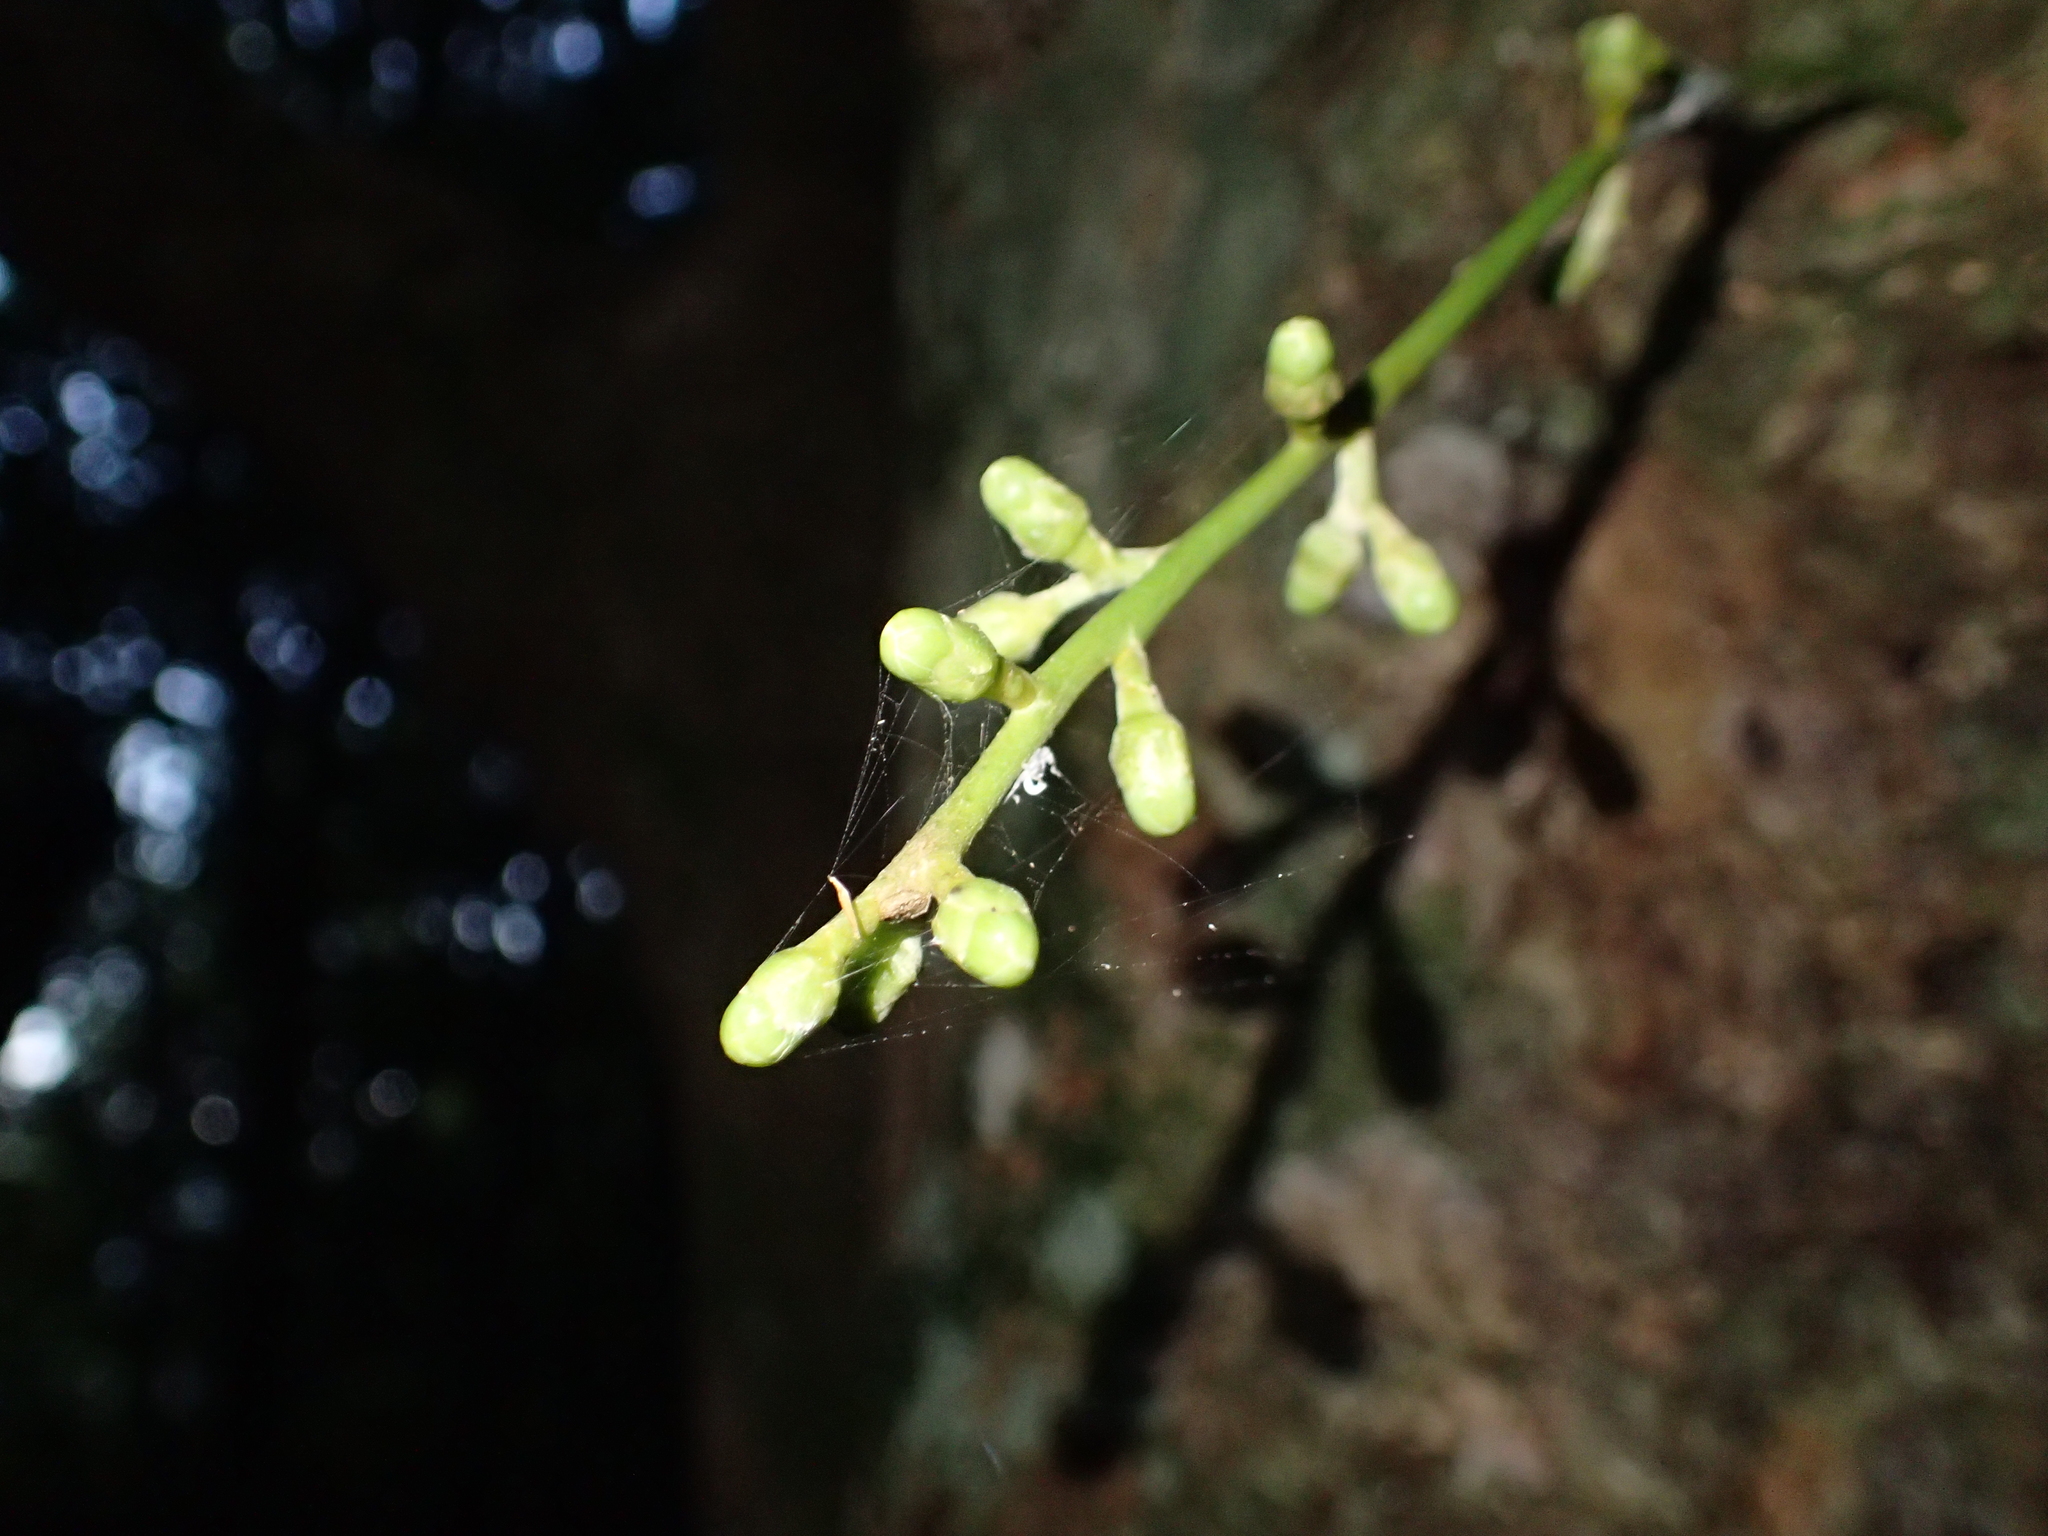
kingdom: Plantae
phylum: Tracheophyta
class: Magnoliopsida
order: Sapindales
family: Meliaceae
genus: Didymocheton
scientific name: Didymocheton spectabilis
